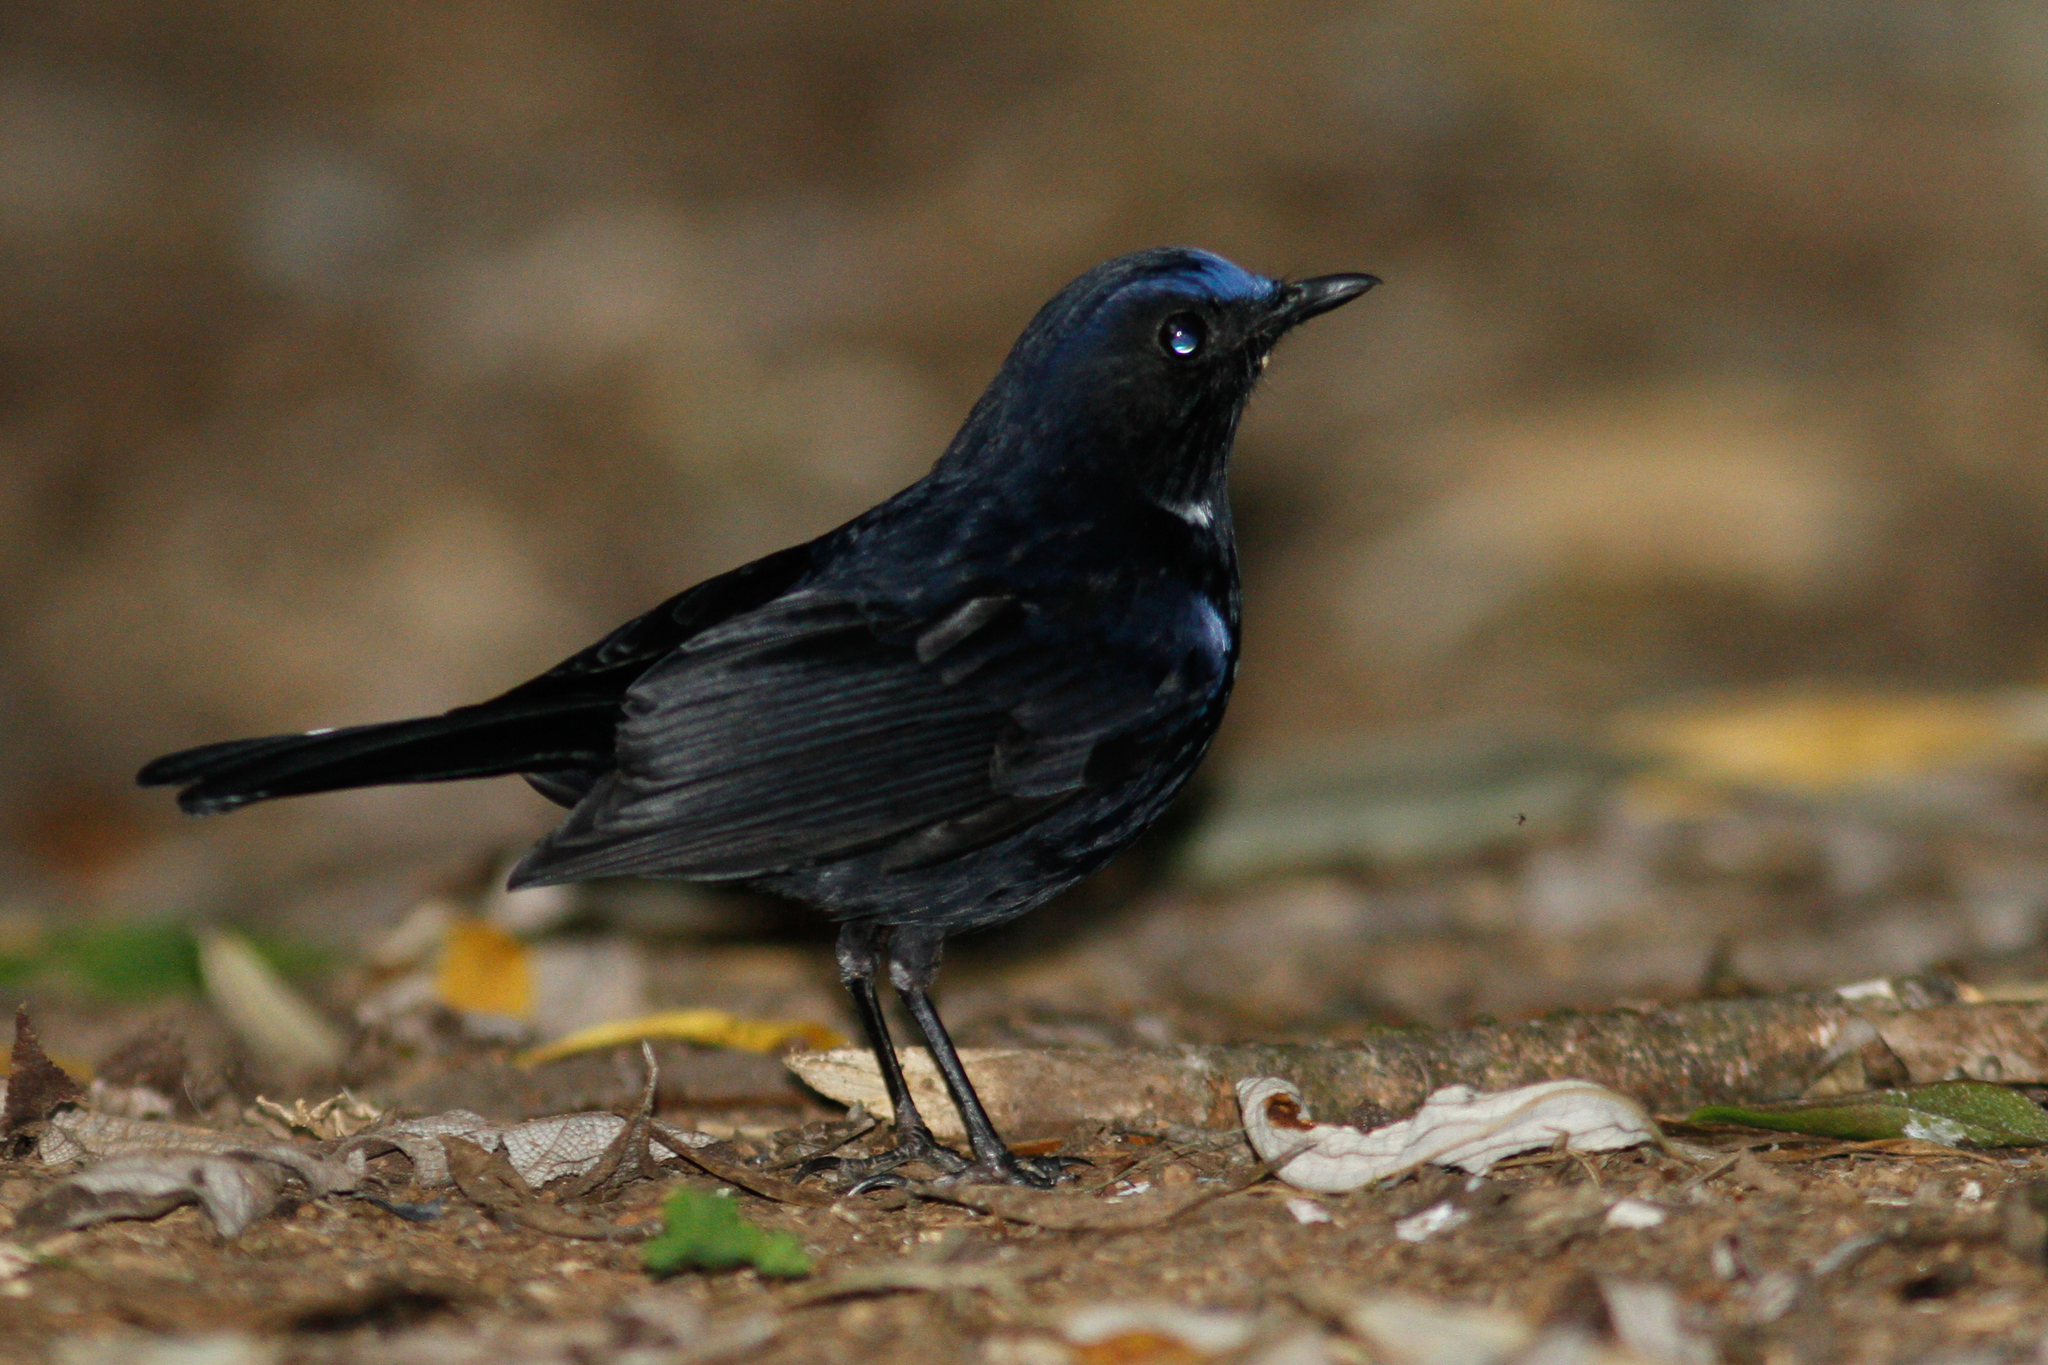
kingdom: Animalia
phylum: Chordata
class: Aves
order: Passeriformes
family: Muscicapidae
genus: Myiomela
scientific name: Myiomela leucura
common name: White-tailed robin
